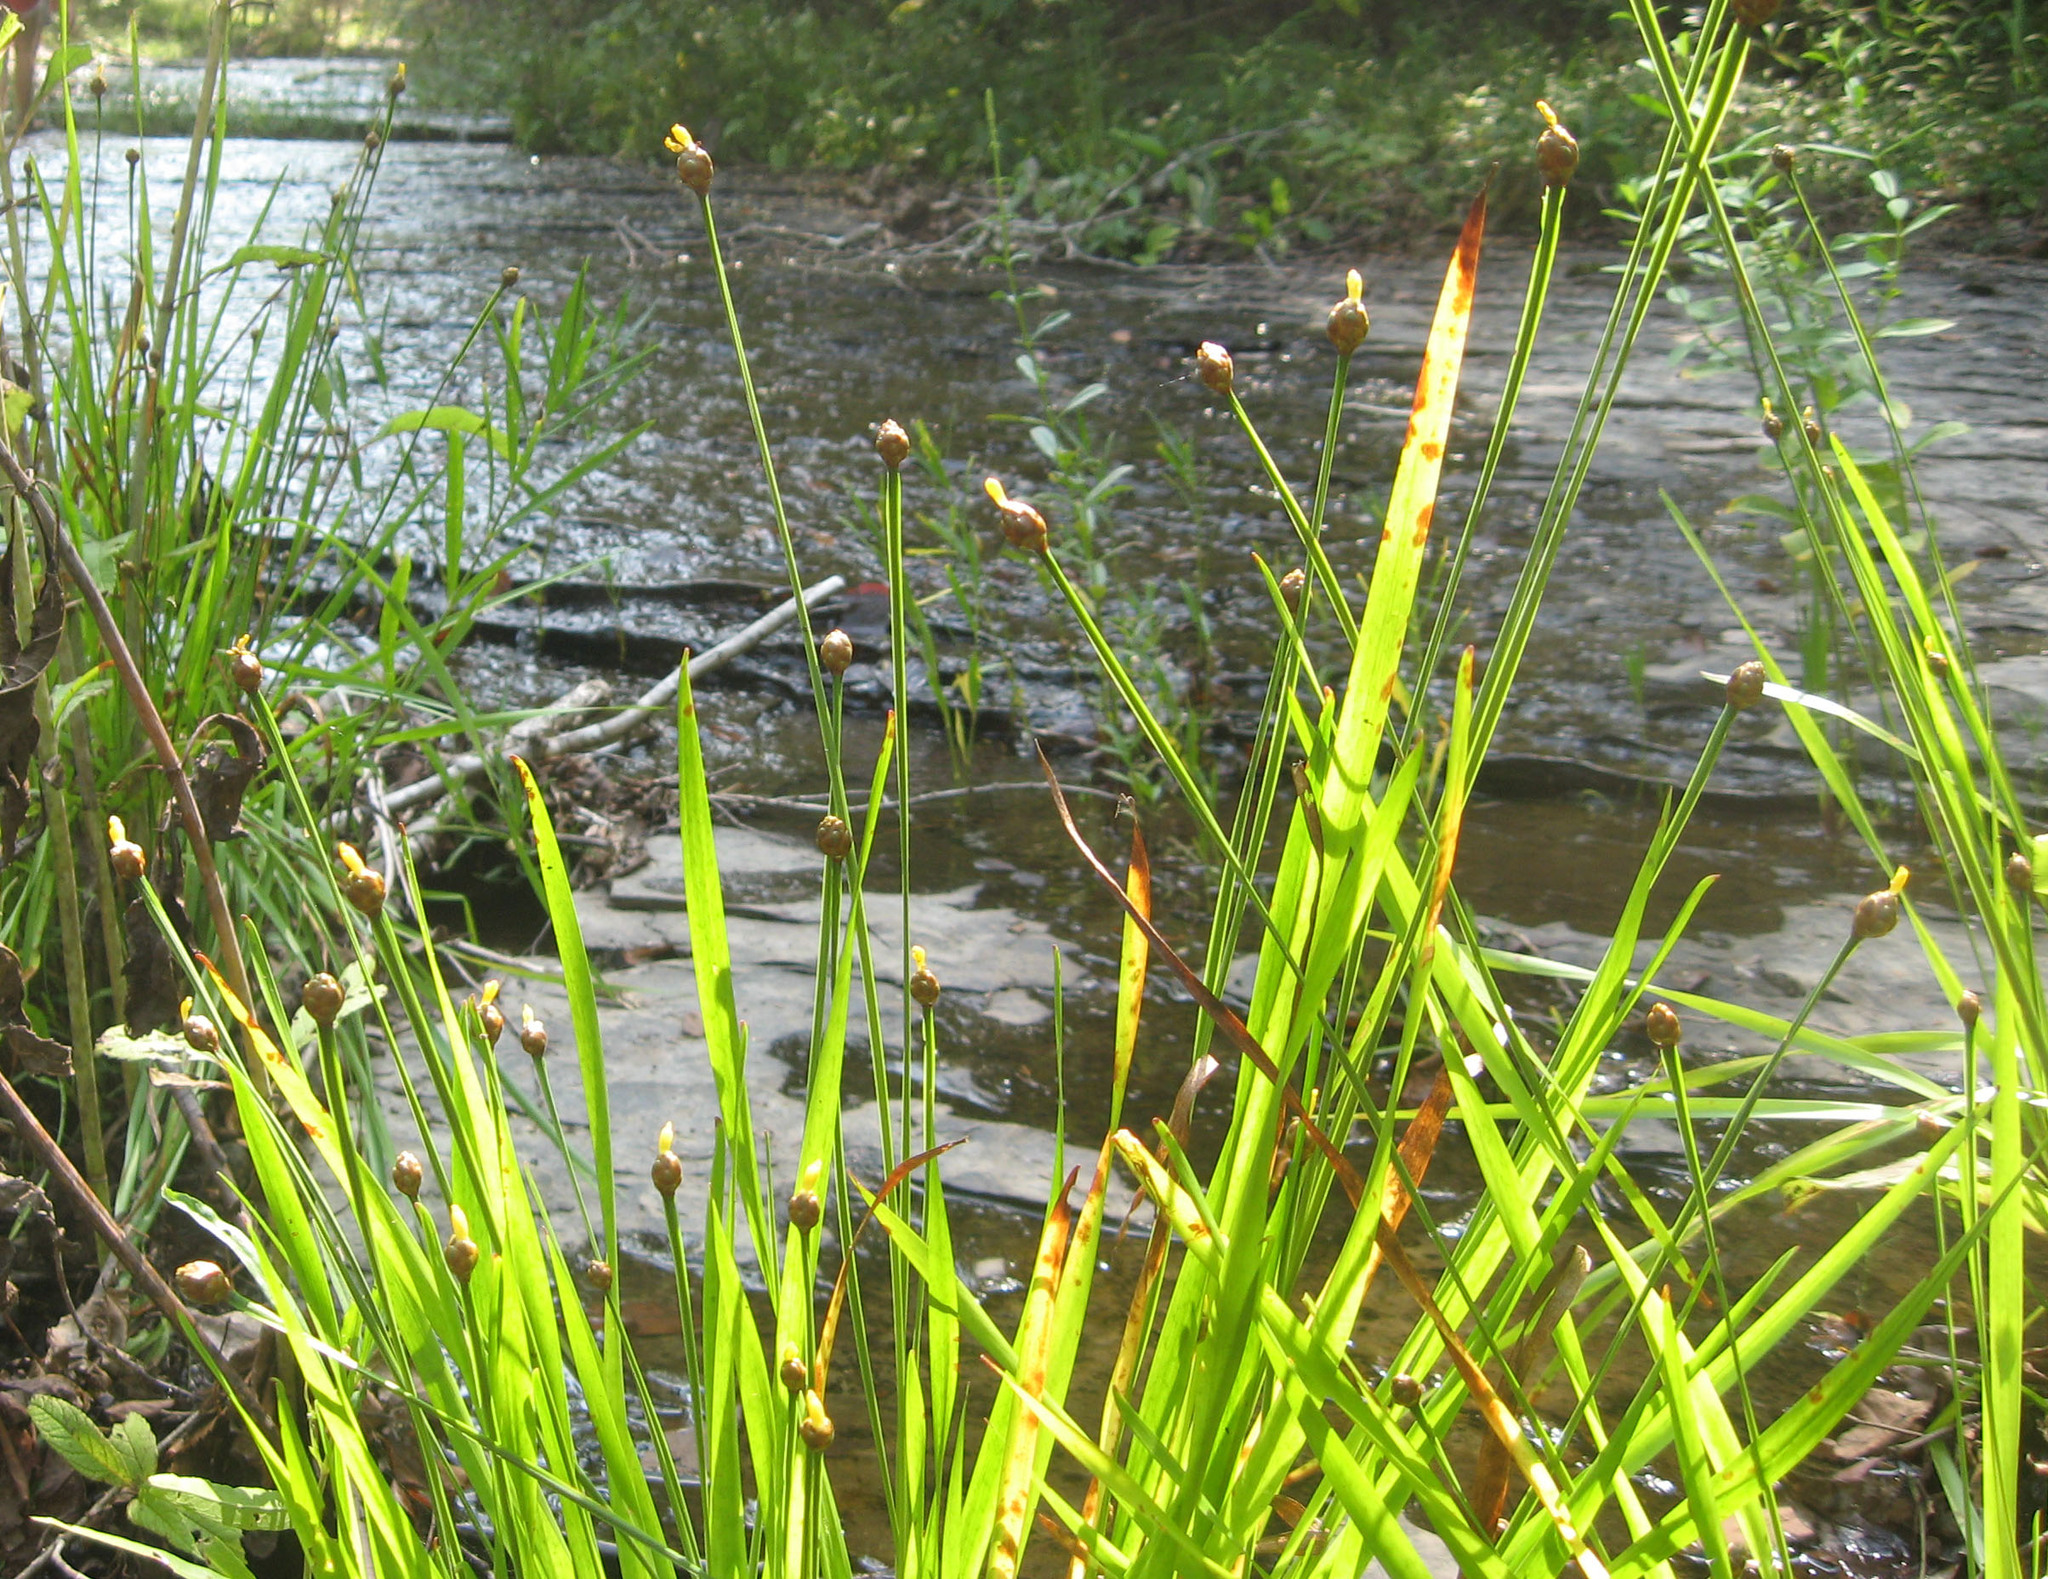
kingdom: Plantae
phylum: Tracheophyta
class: Liliopsida
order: Poales
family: Xyridaceae
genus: Xyris
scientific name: Xyris tennesseensis
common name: Tennessee yellow-eyed-grass
